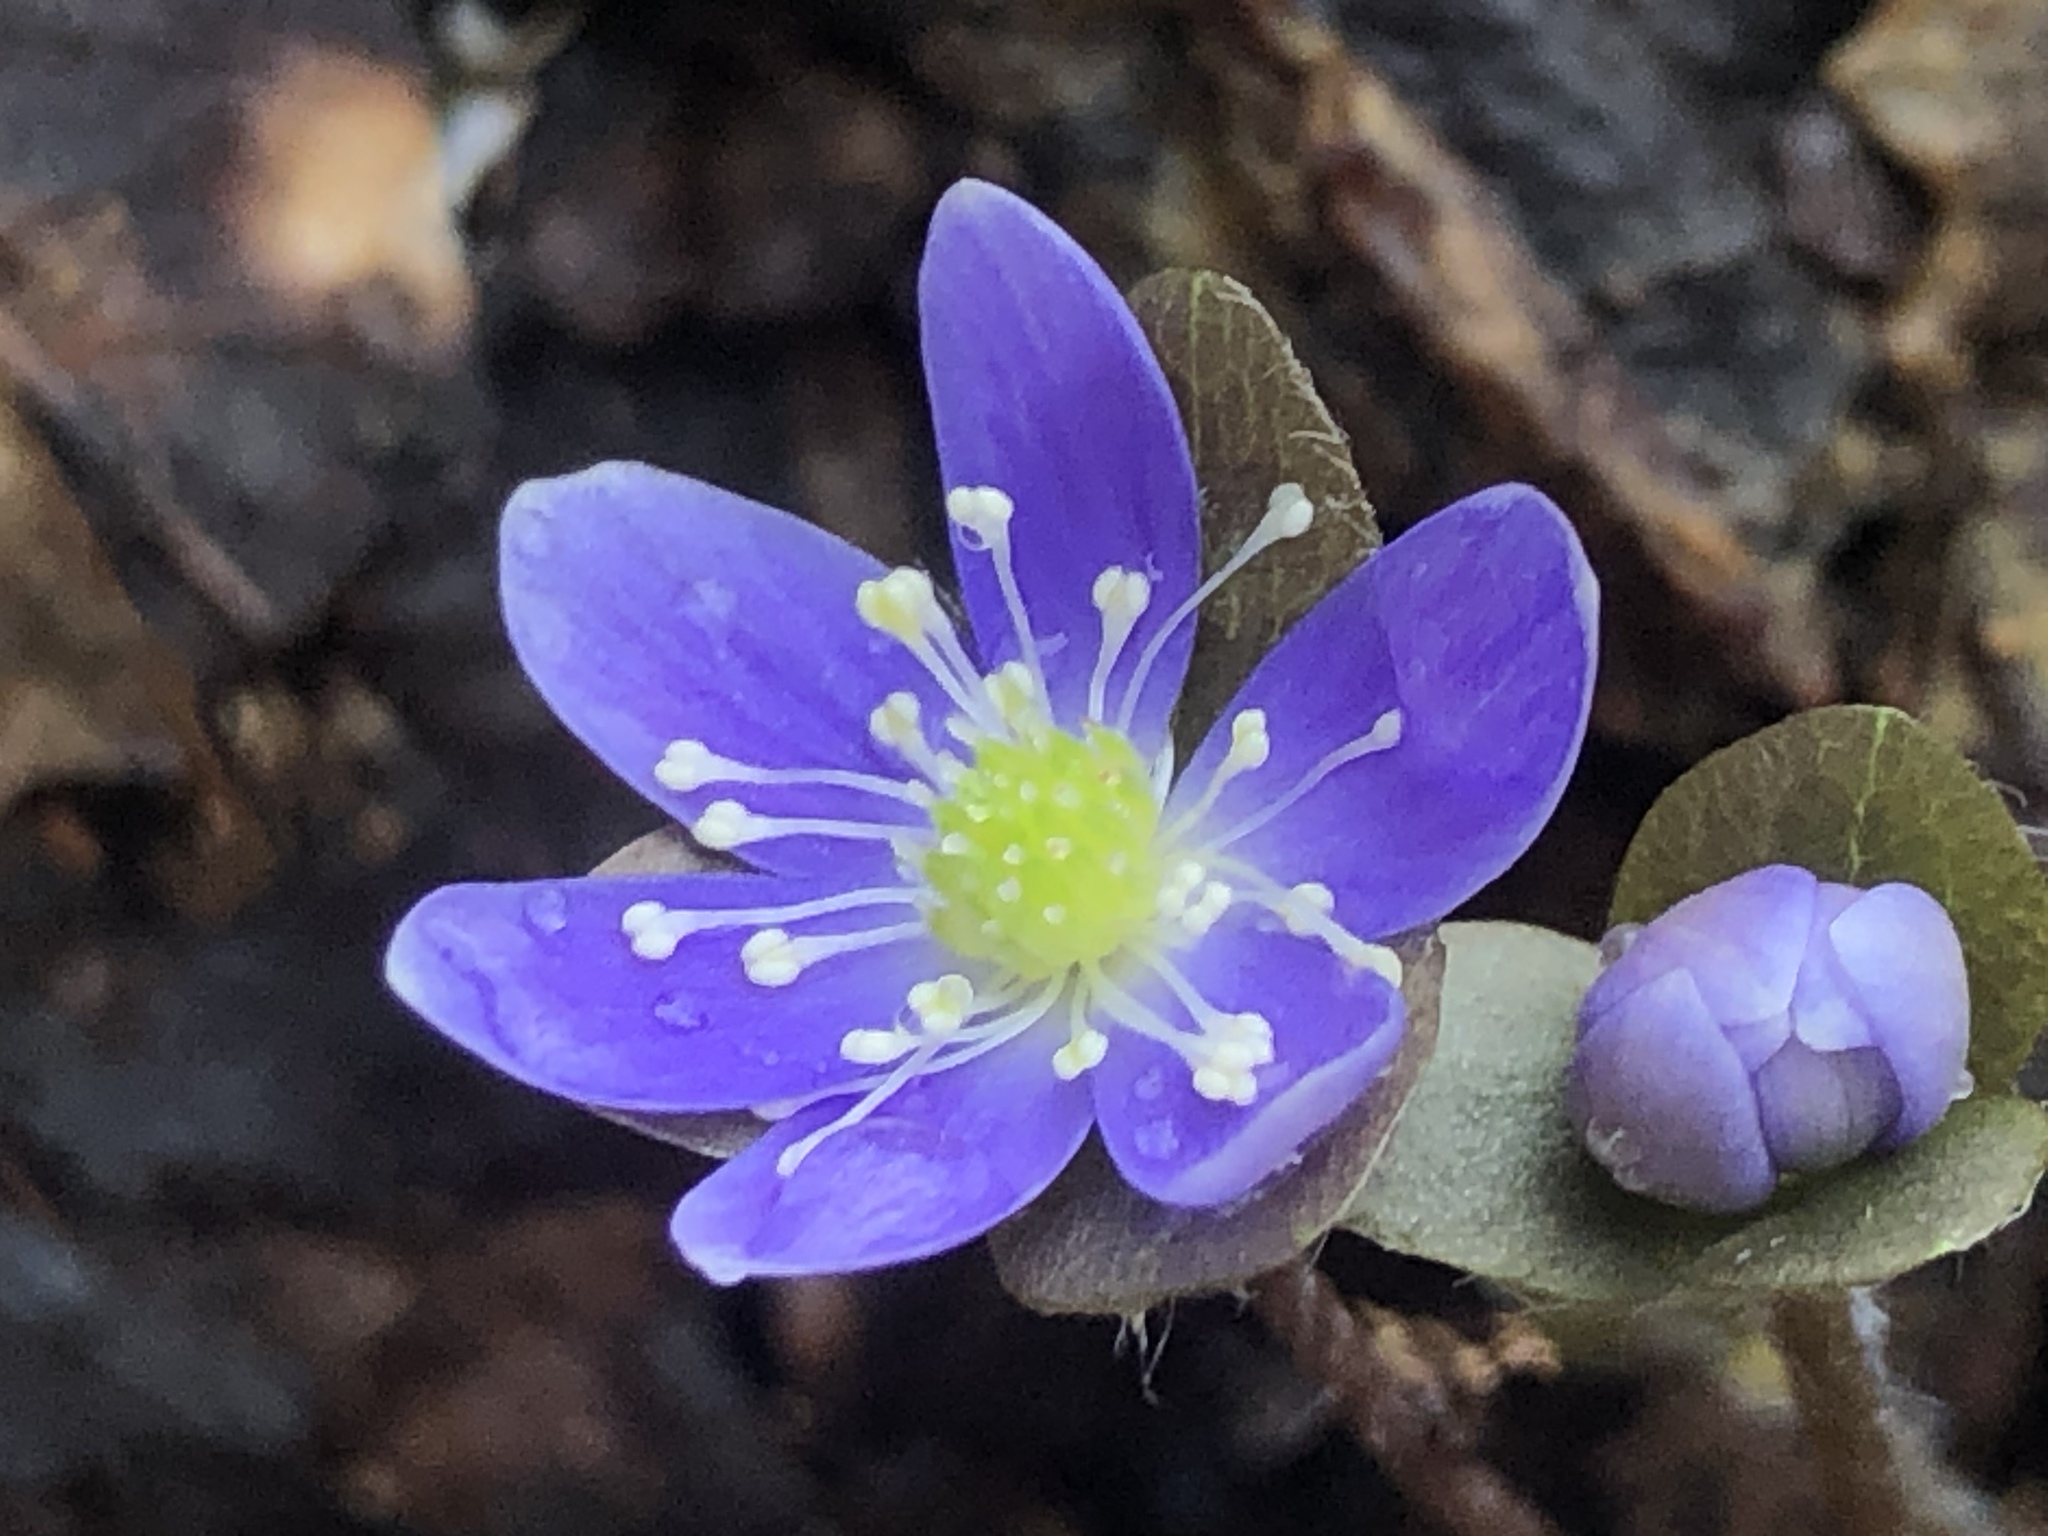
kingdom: Plantae
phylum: Tracheophyta
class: Magnoliopsida
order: Ranunculales
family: Ranunculaceae
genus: Hepatica
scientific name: Hepatica americana
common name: American hepatica
